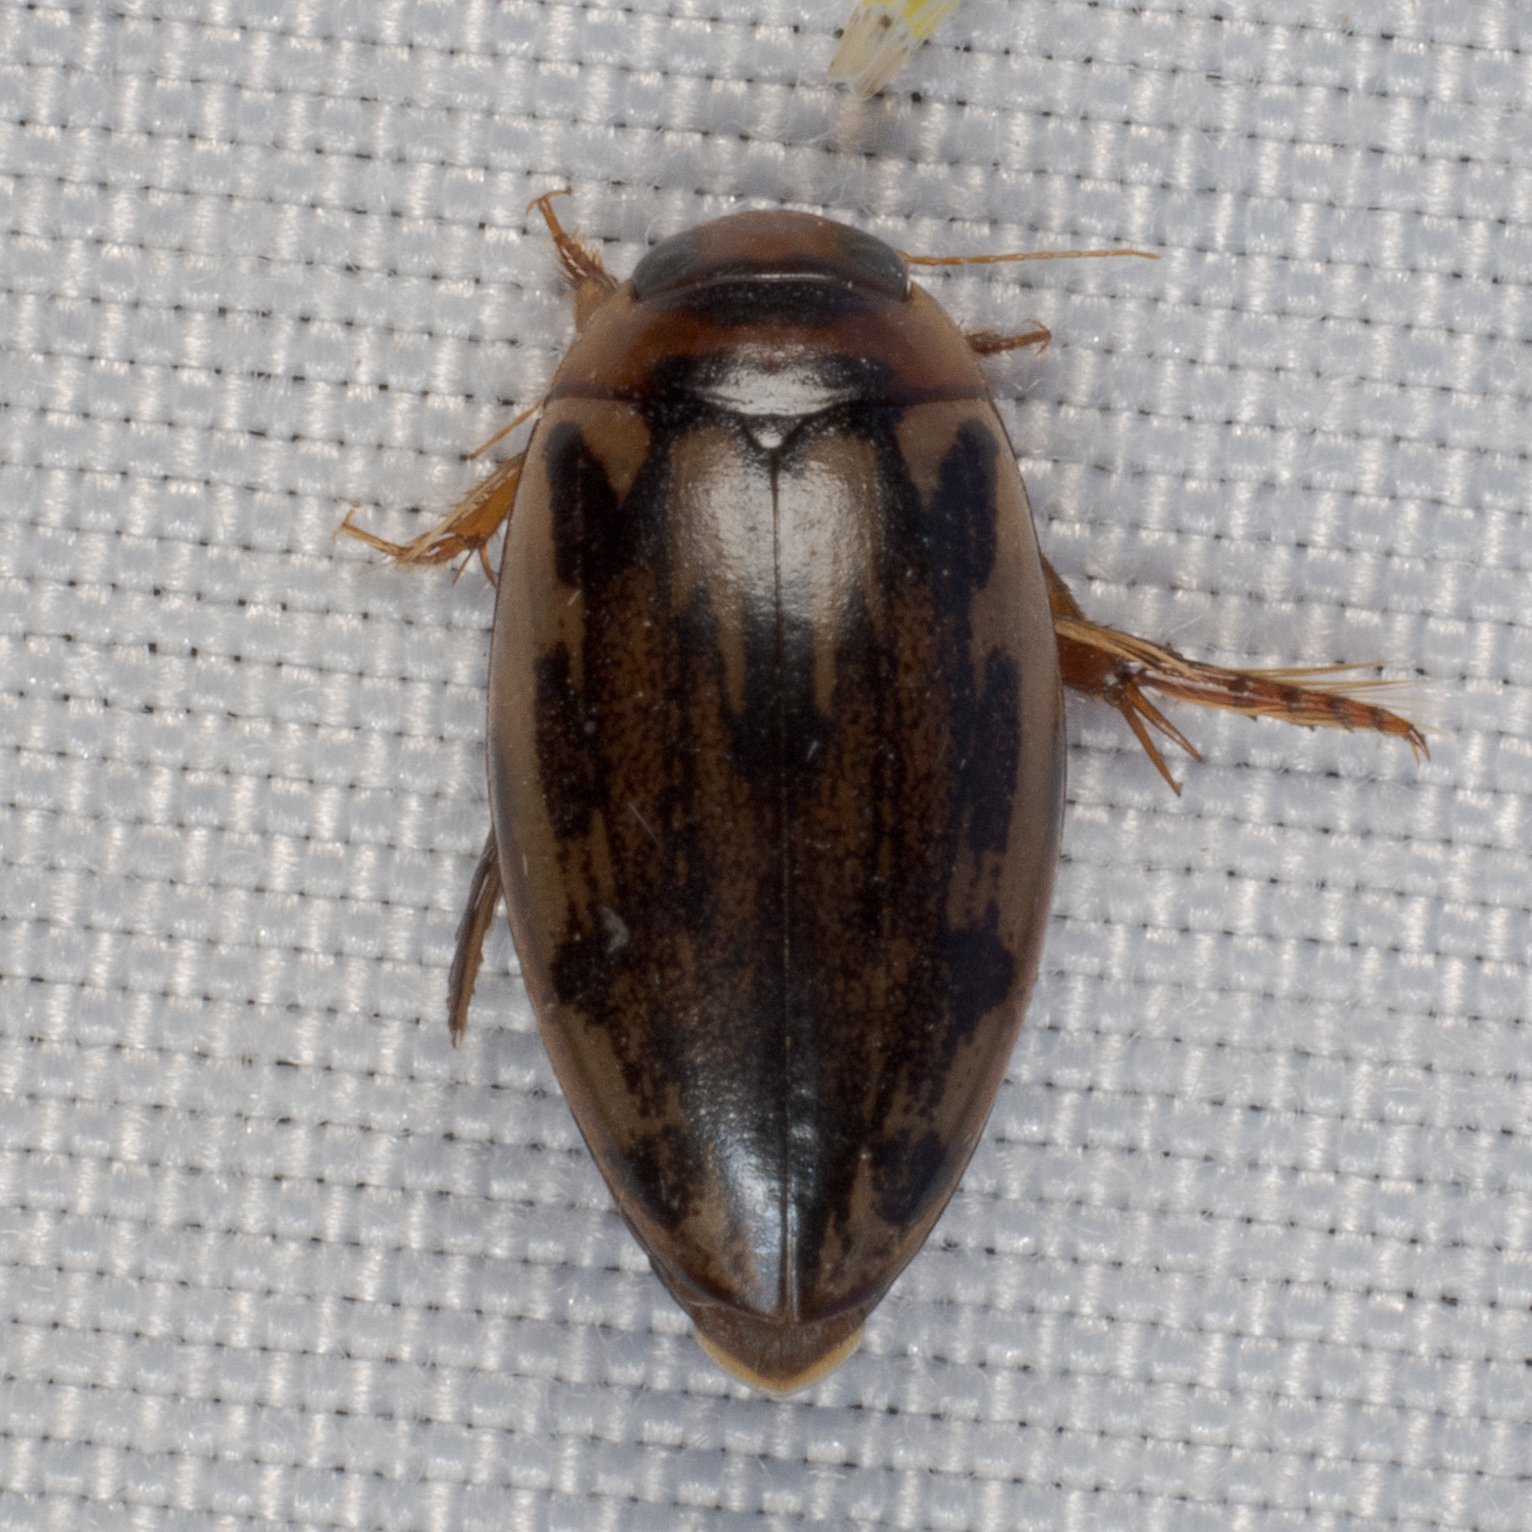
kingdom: Animalia
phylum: Arthropoda
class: Insecta
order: Coleoptera
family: Dytiscidae
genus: Coptotomus
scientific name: Coptotomus
